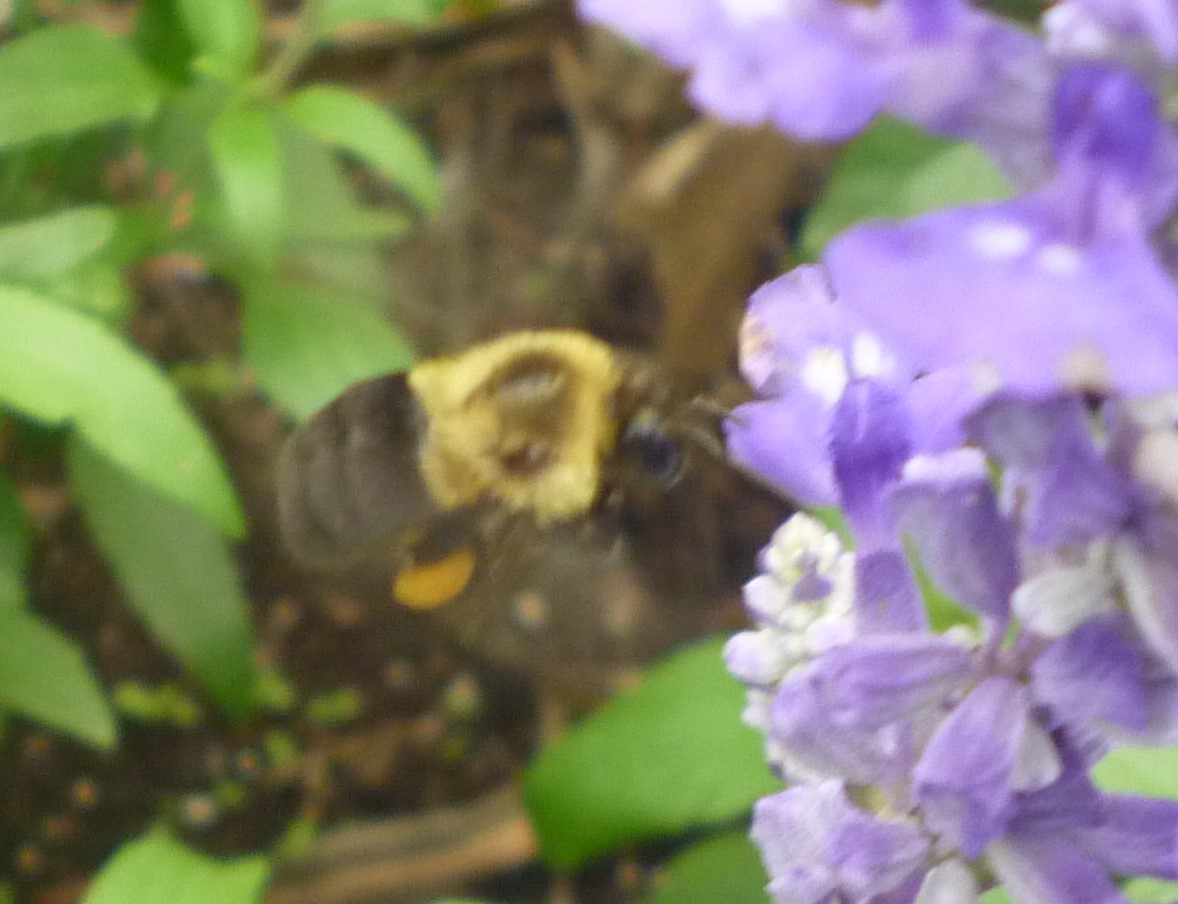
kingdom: Animalia
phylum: Arthropoda
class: Insecta
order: Hymenoptera
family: Apidae
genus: Bombus
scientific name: Bombus impatiens
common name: Common eastern bumble bee
